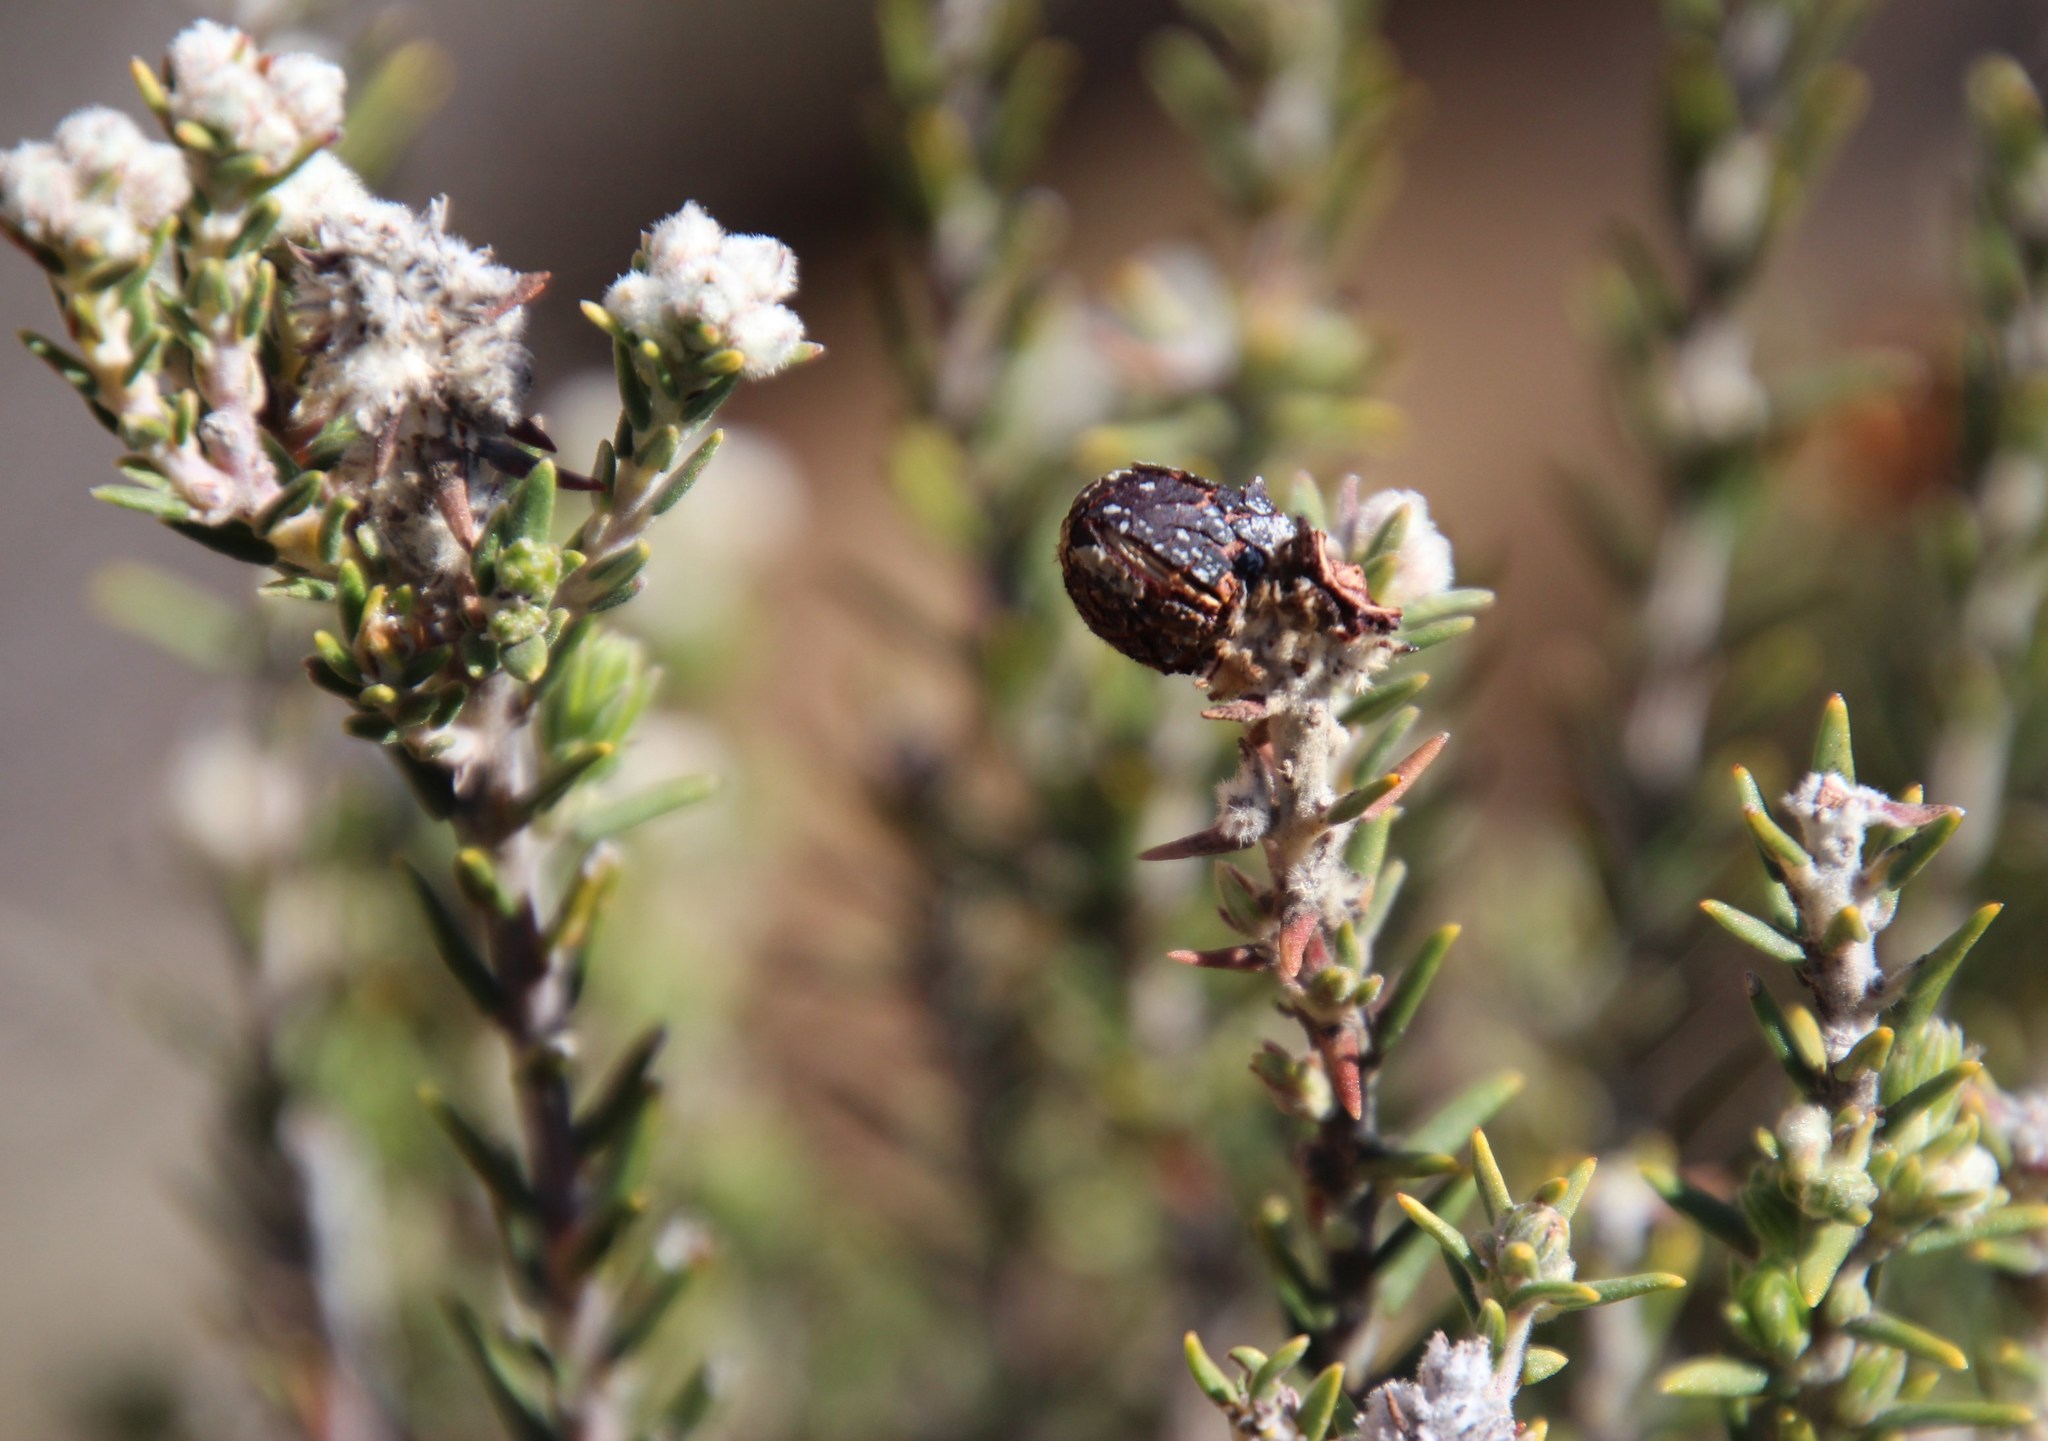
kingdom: Plantae
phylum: Tracheophyta
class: Magnoliopsida
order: Rosales
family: Rhamnaceae
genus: Phylica
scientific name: Phylica montana
